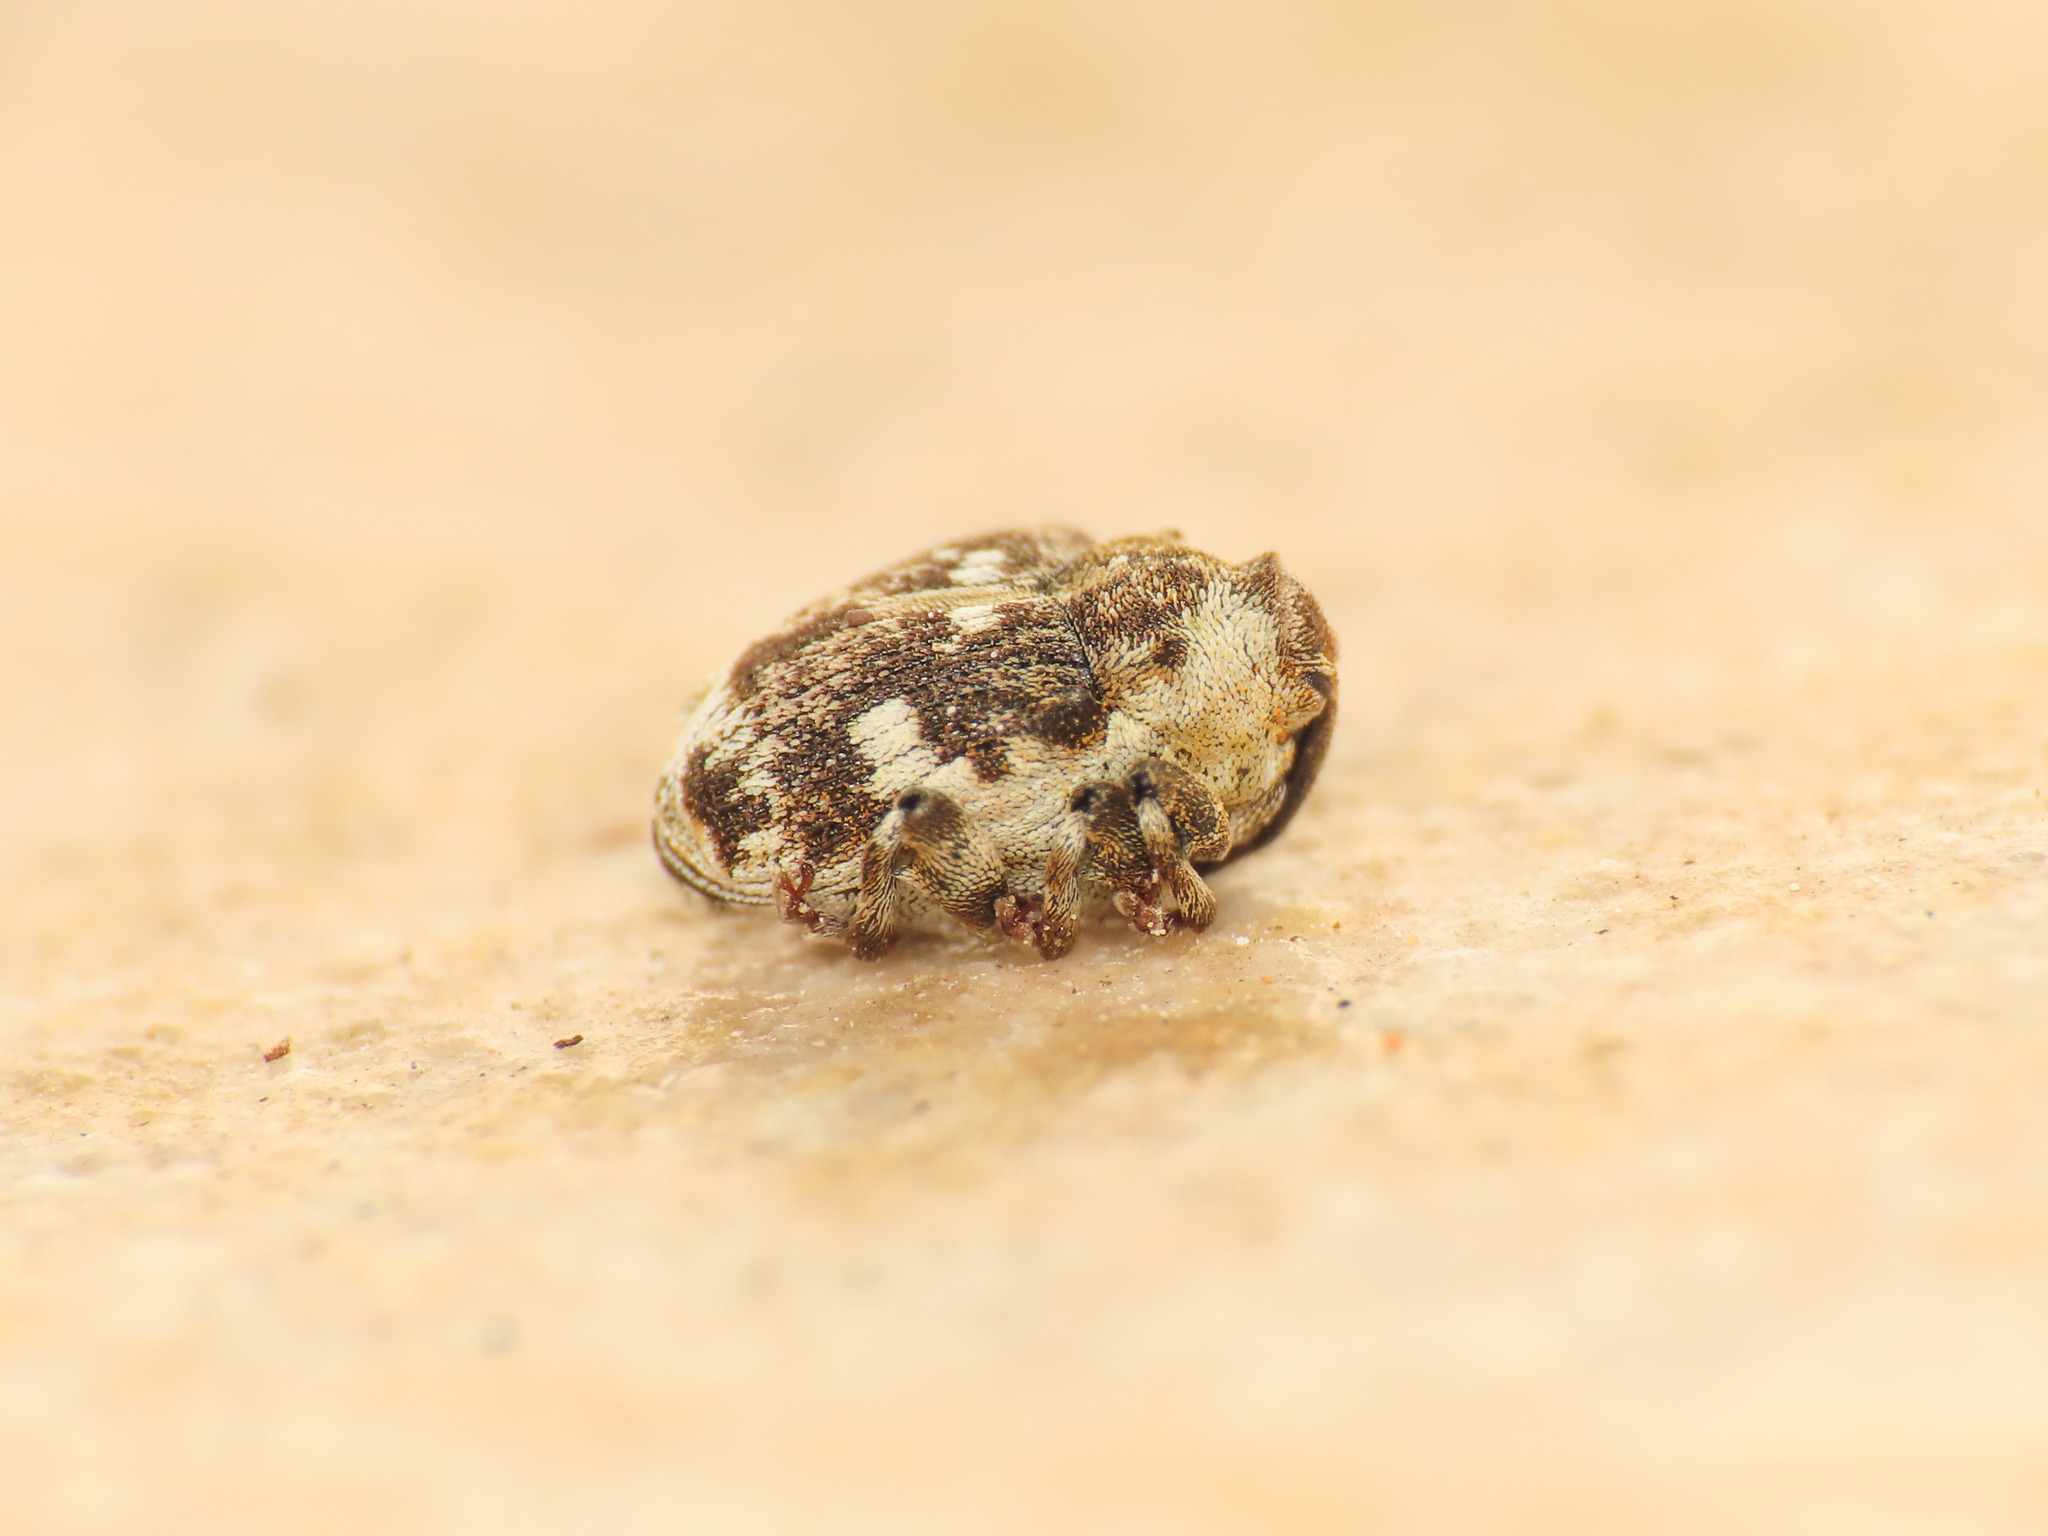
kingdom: Animalia
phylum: Arthropoda
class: Insecta
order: Coleoptera
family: Curculionidae
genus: Hadroplontus
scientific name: Hadroplontus trimaculatus
